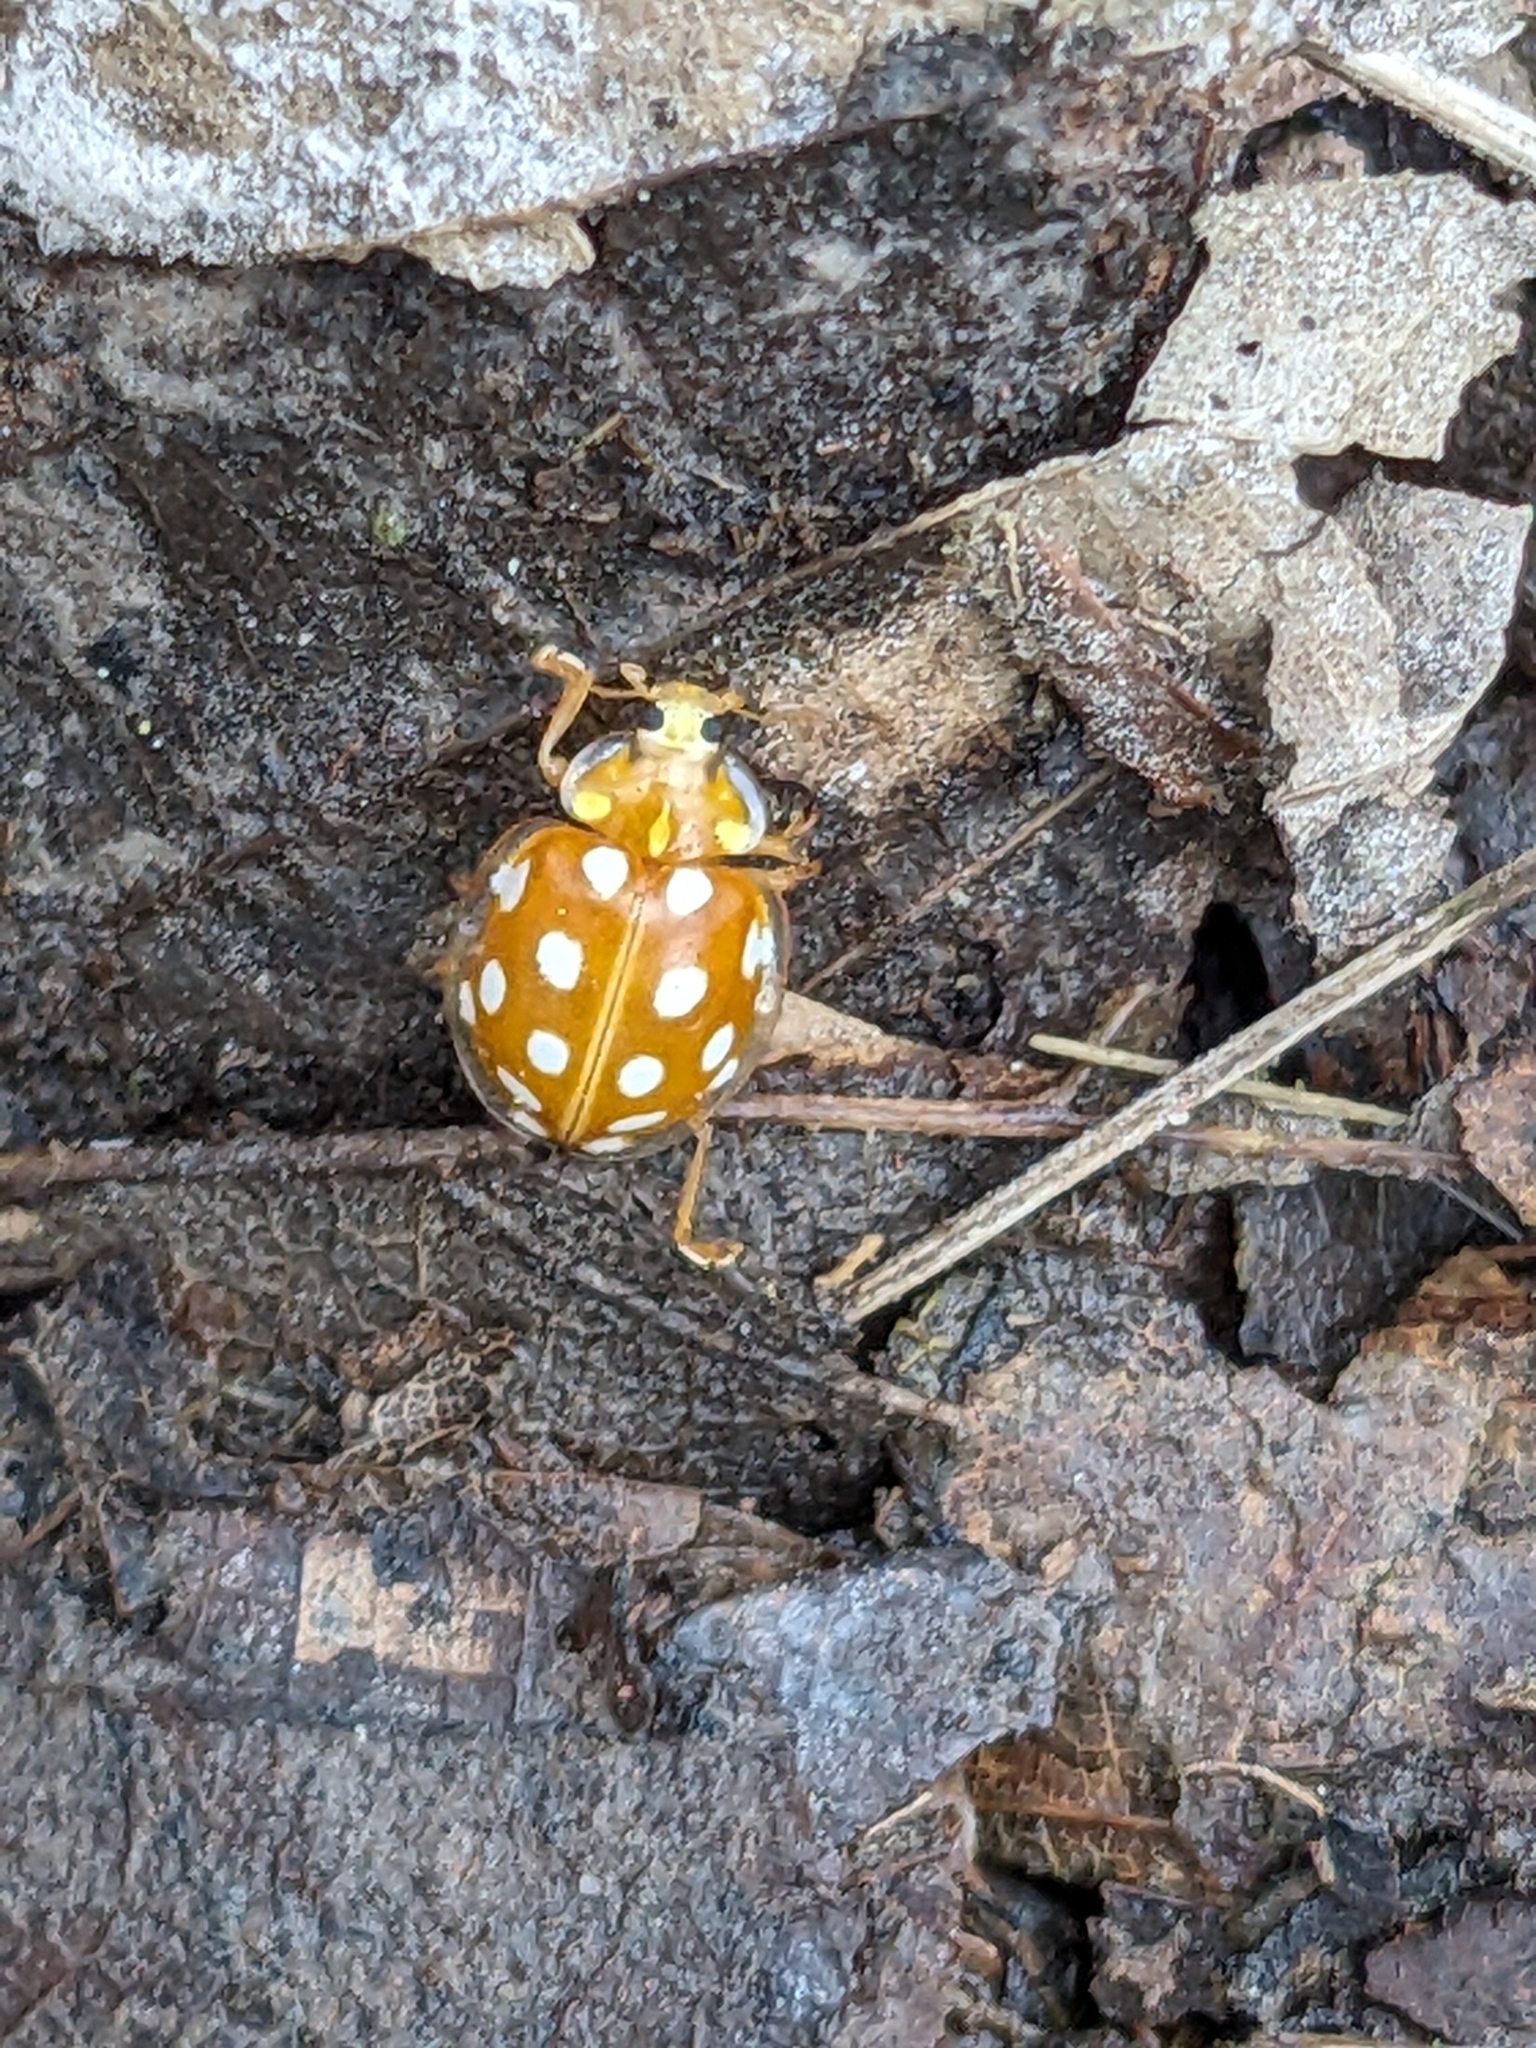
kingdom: Animalia
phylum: Arthropoda
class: Insecta
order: Coleoptera
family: Coccinellidae
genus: Halyzia
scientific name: Halyzia sedecimguttata
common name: Orange ladybird
